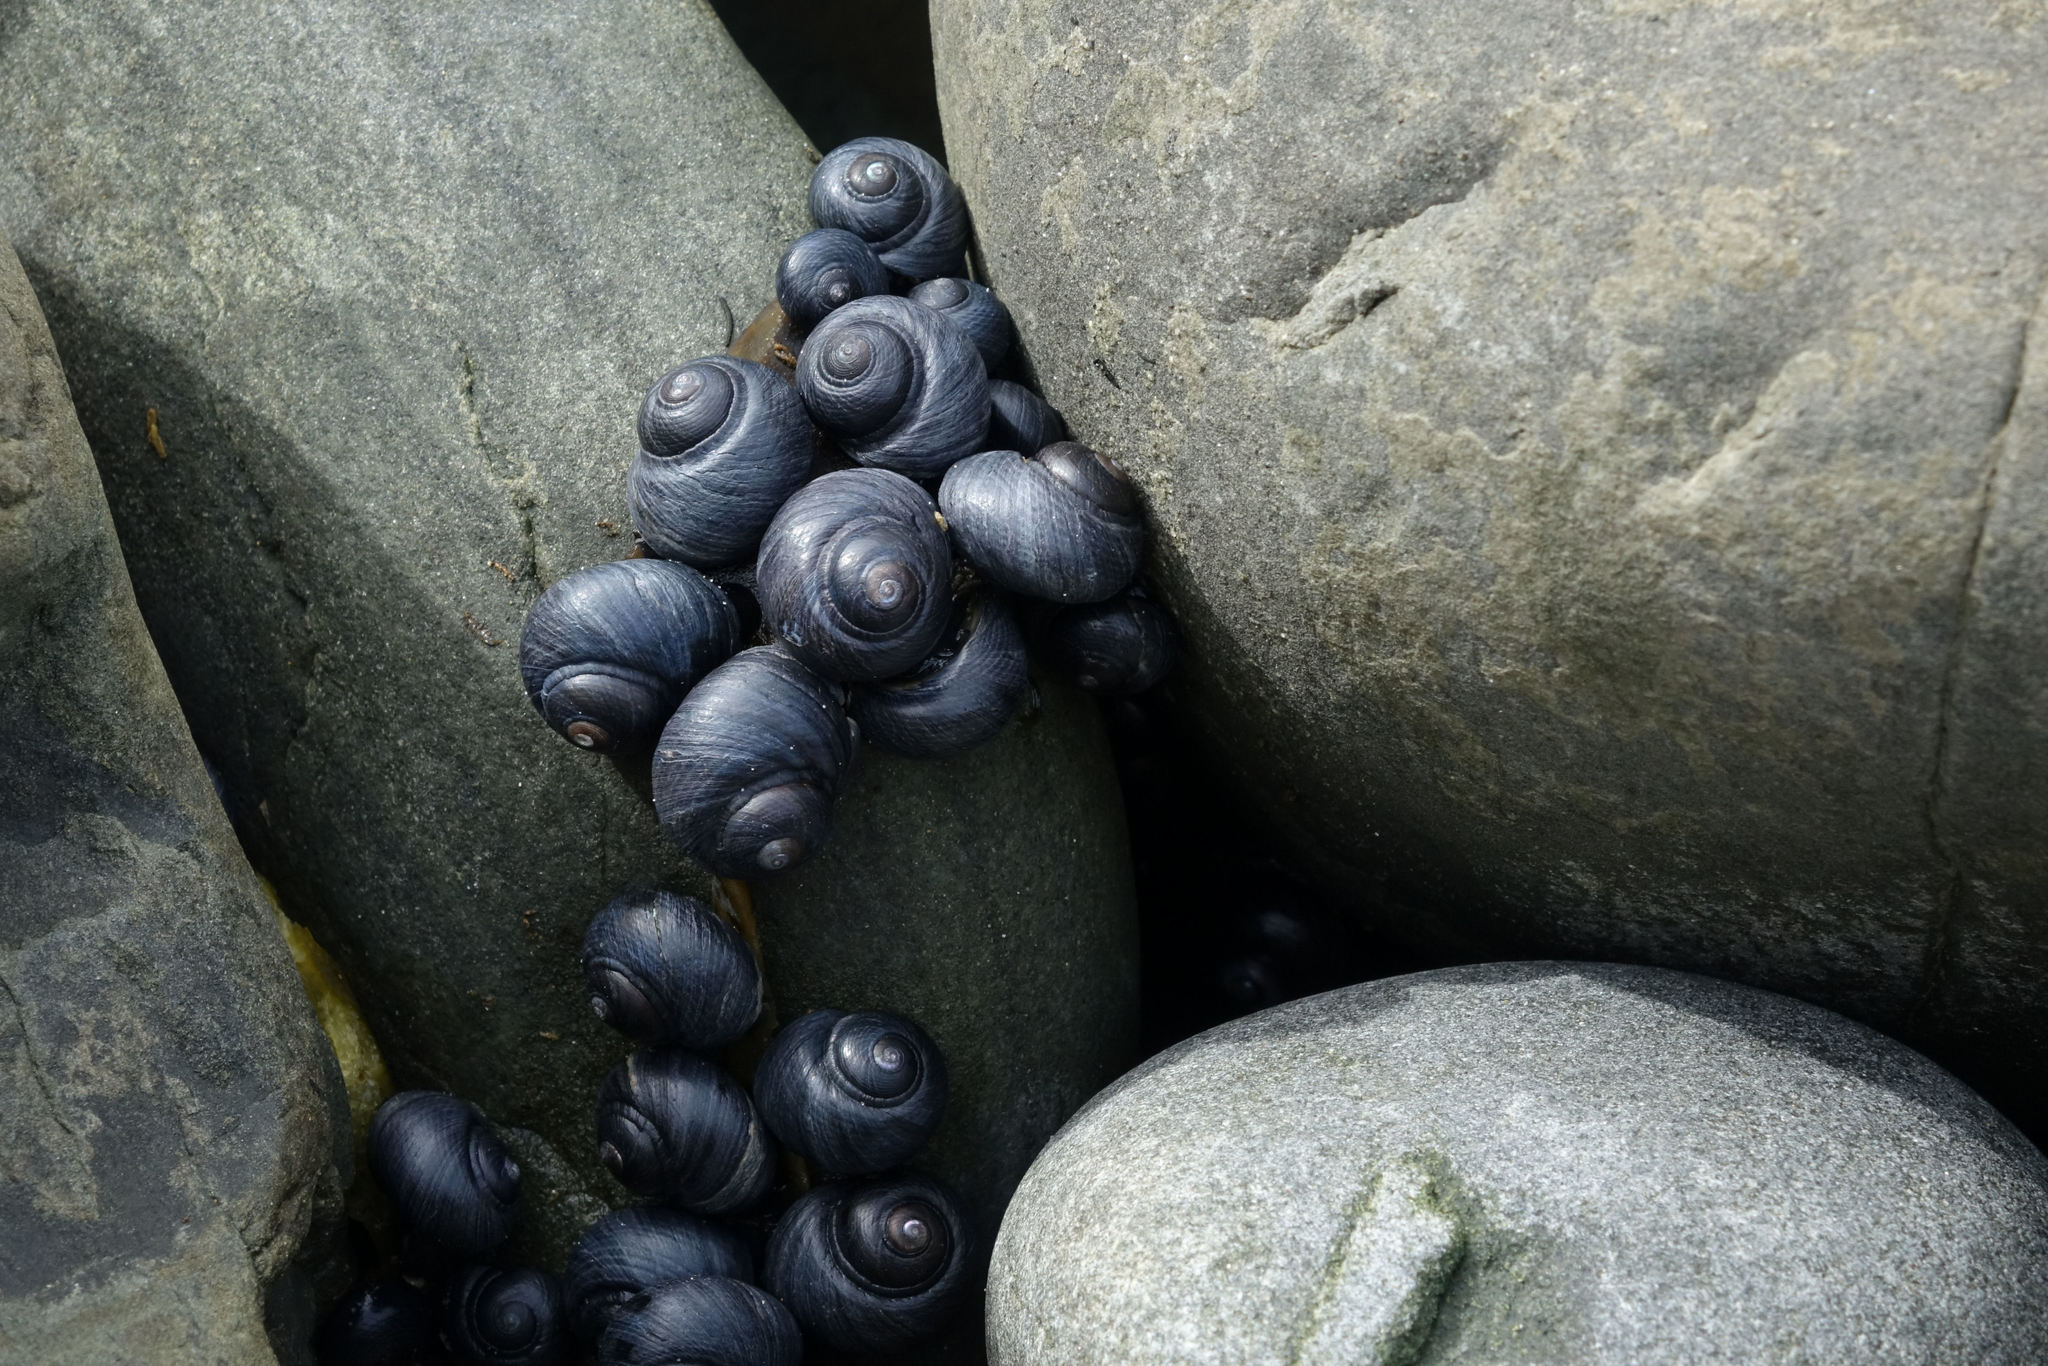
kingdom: Animalia
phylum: Mollusca
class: Gastropoda
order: Trochida
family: Trochidae
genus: Diloma
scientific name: Diloma nigerrimum
